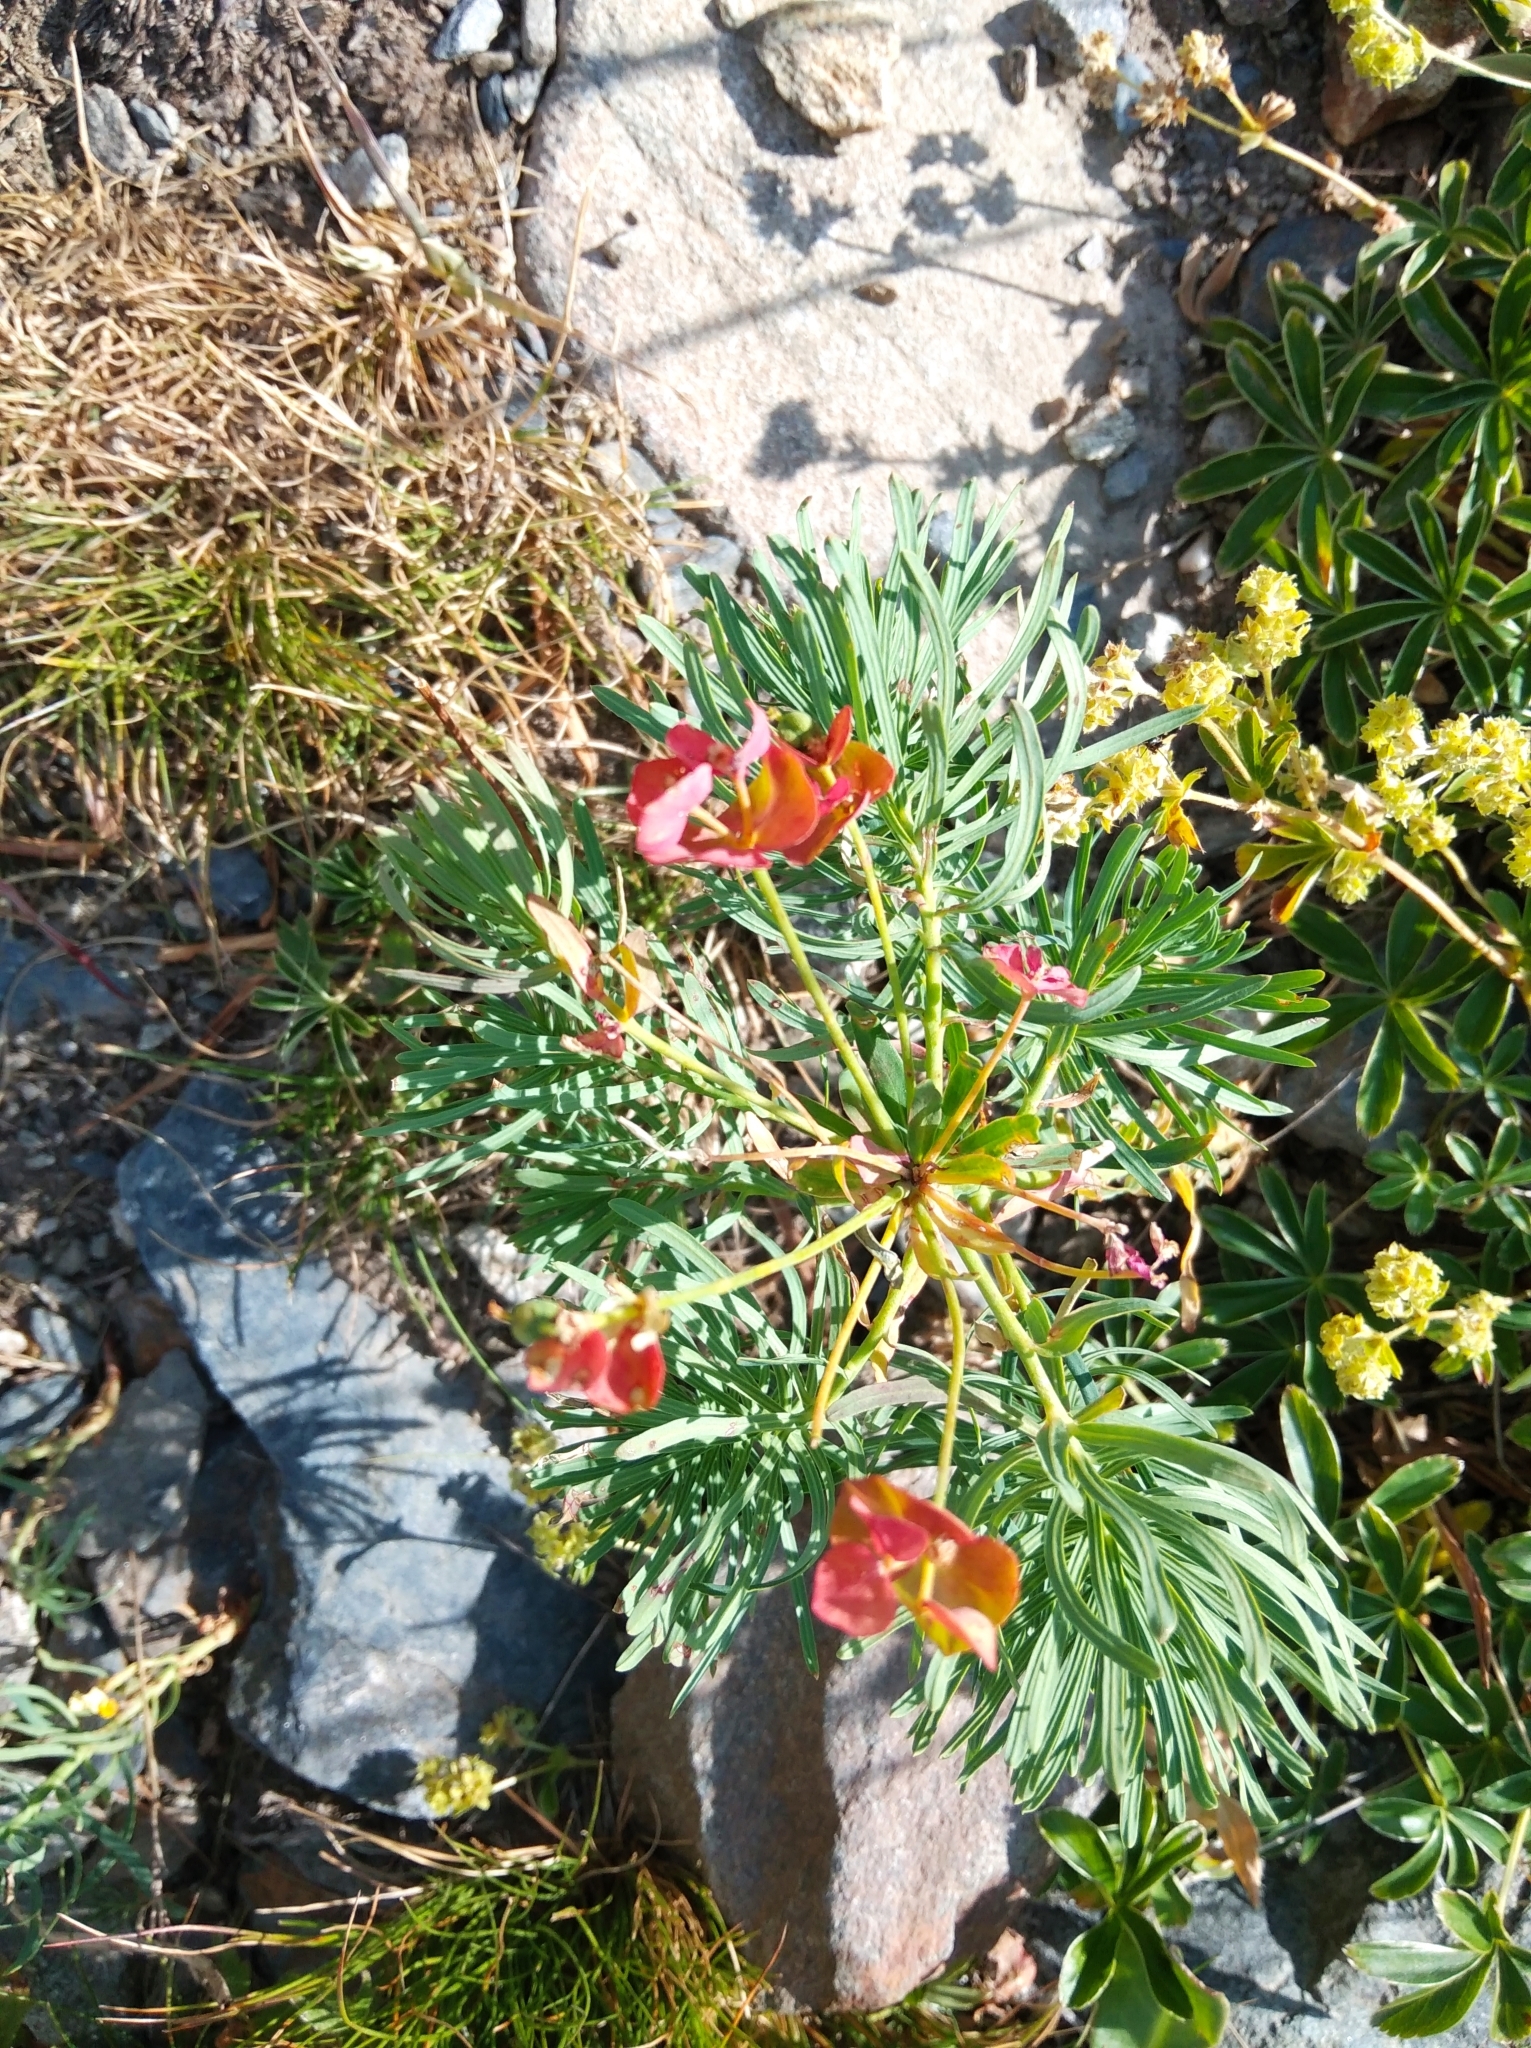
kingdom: Plantae
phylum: Tracheophyta
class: Magnoliopsida
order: Malpighiales
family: Euphorbiaceae
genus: Euphorbia
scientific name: Euphorbia cyparissias
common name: Cypress spurge
